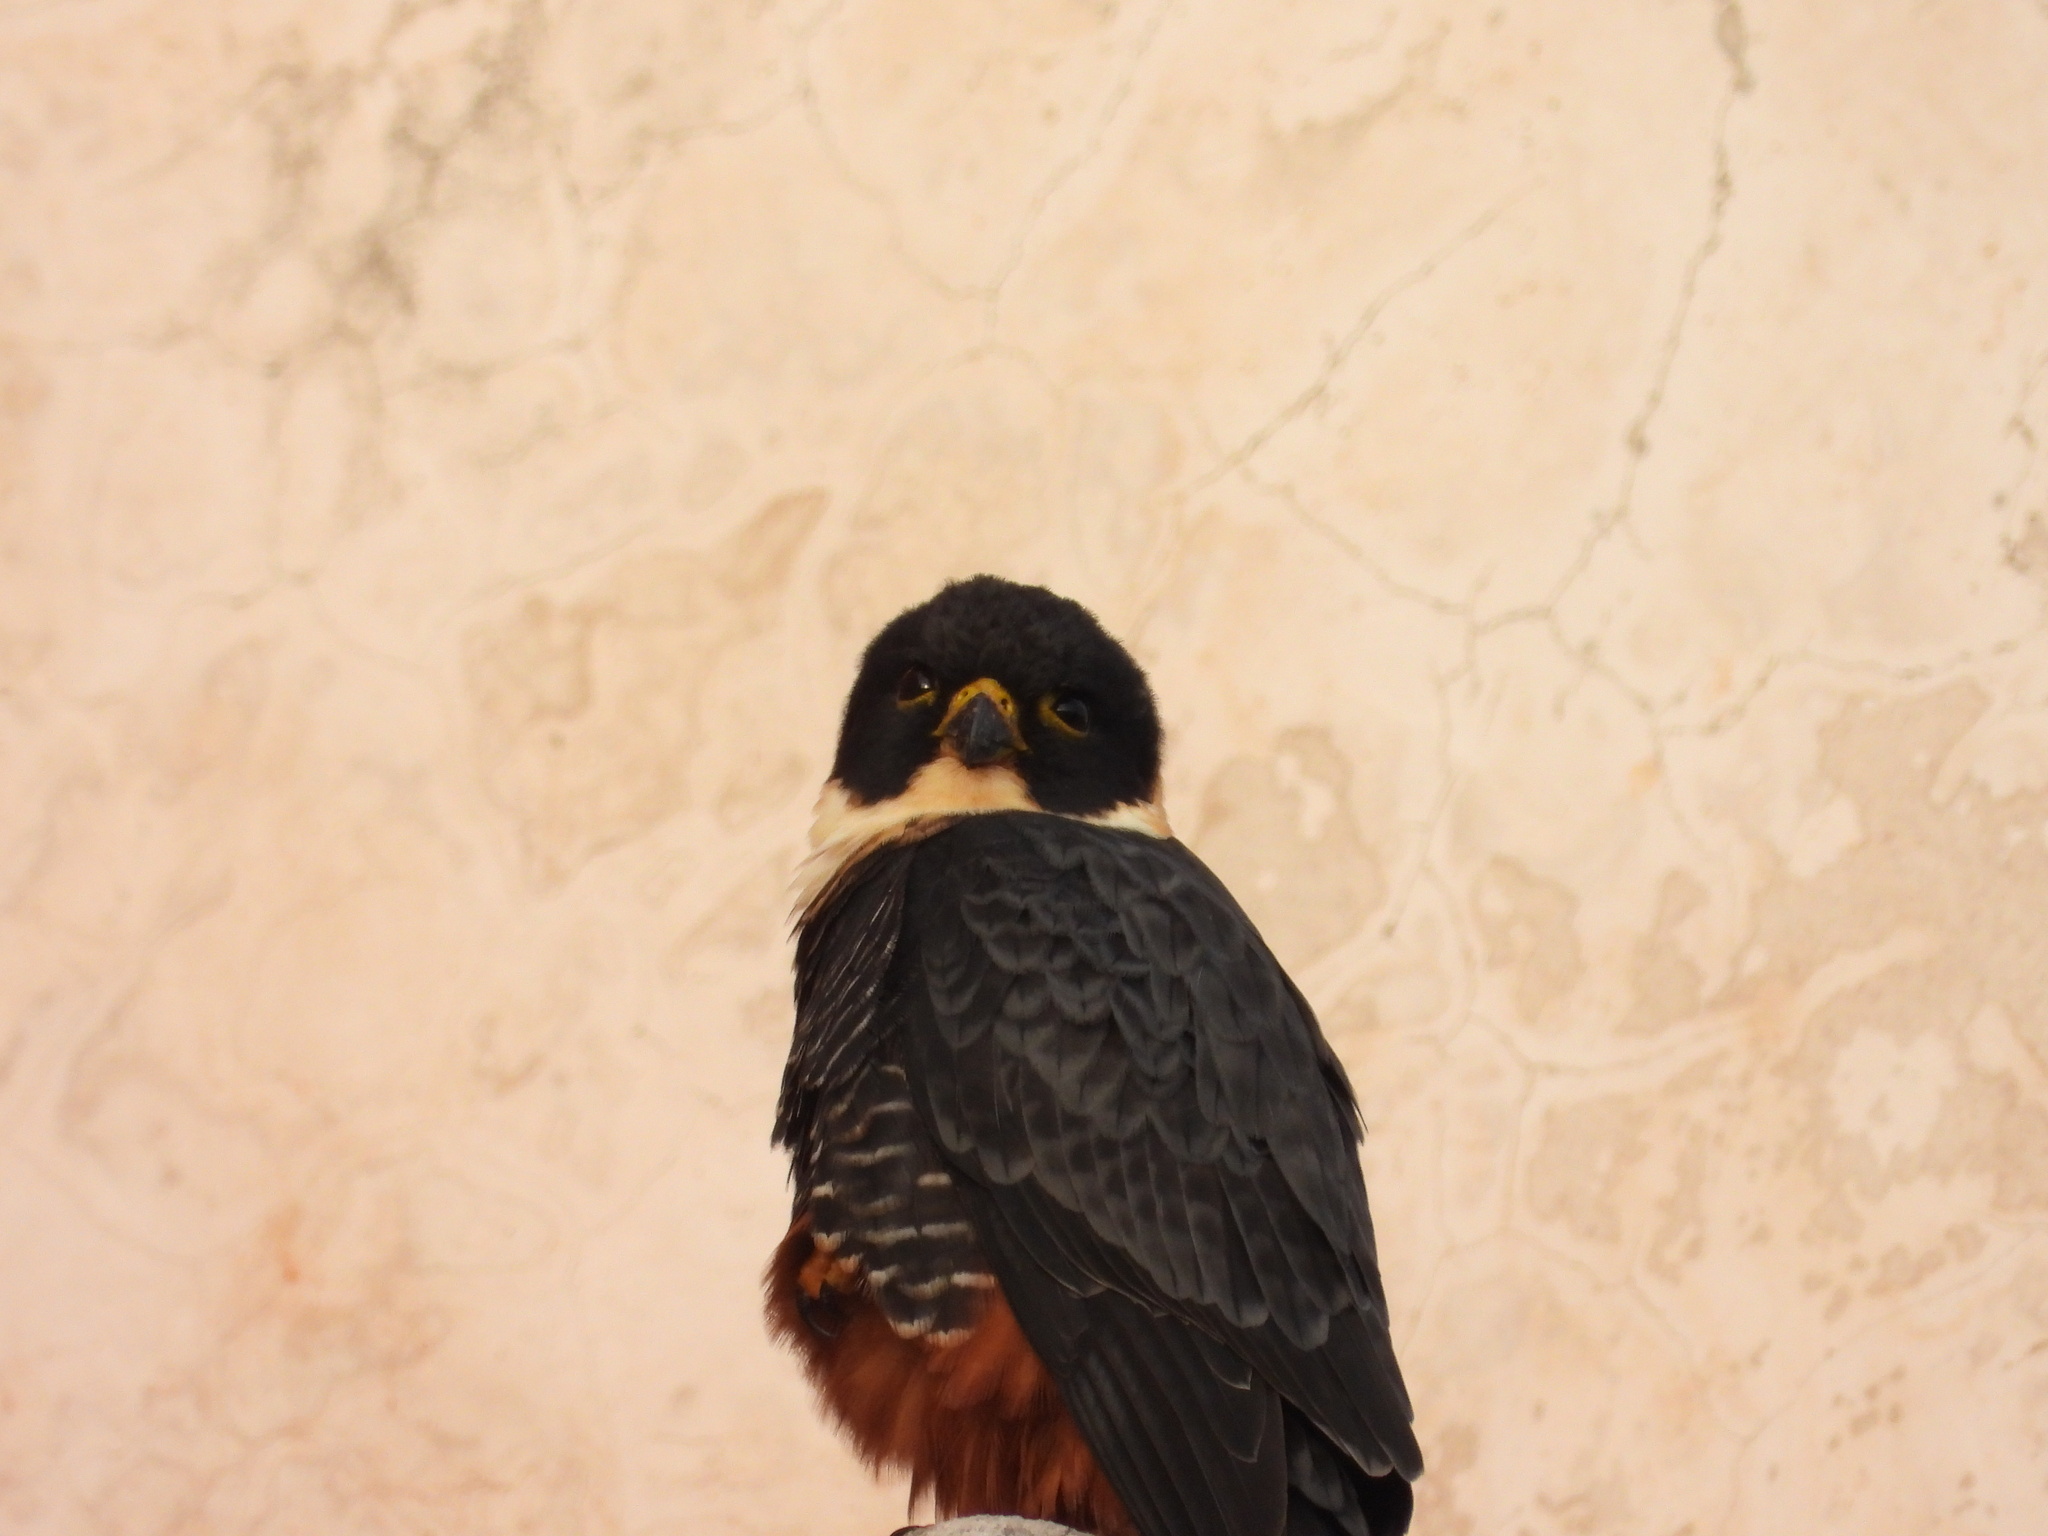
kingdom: Animalia
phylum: Chordata
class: Aves
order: Falconiformes
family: Falconidae
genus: Falco
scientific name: Falco rufigularis
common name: Bat falcon
